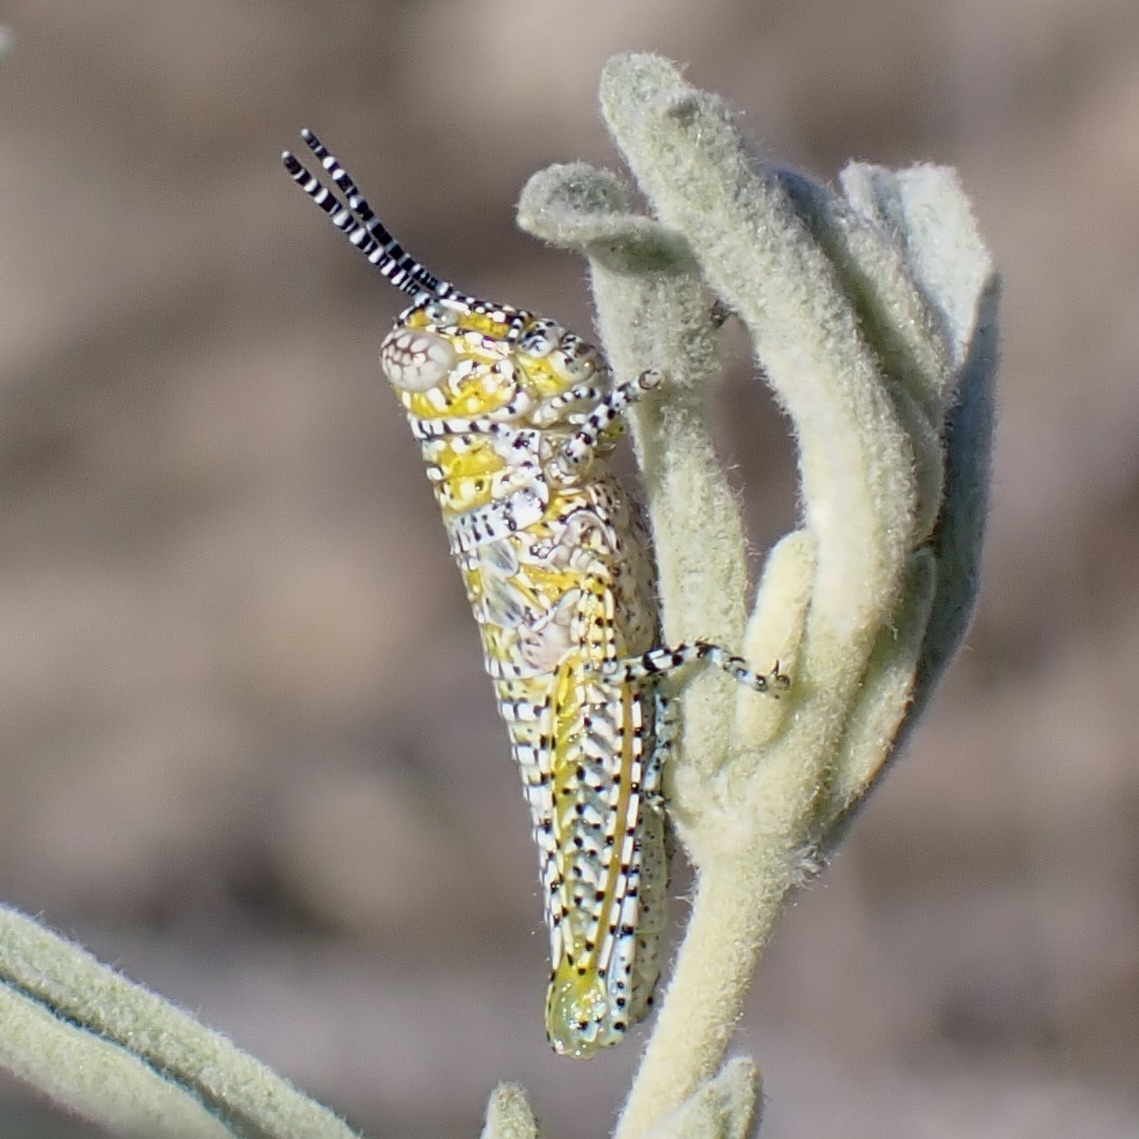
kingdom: Animalia
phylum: Arthropoda
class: Insecta
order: Orthoptera
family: Acrididae
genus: Poecilotettix
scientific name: Poecilotettix pantherinus
